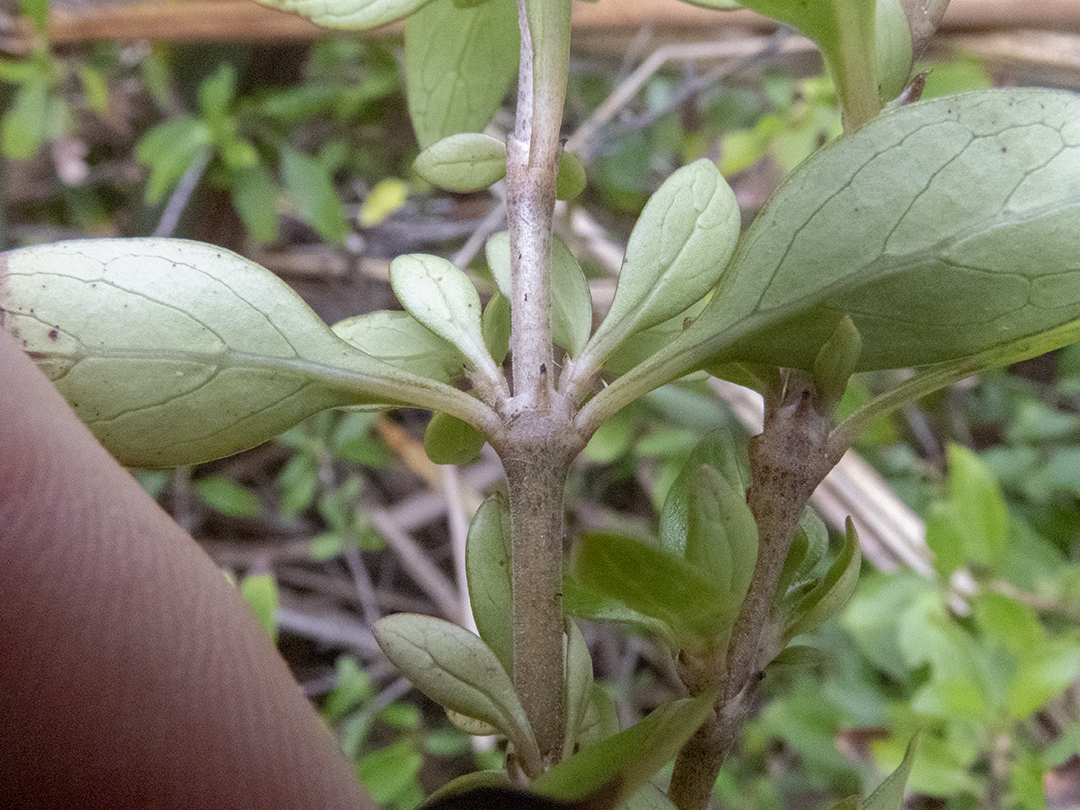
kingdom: Plantae
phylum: Tracheophyta
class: Magnoliopsida
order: Gentianales
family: Rubiaceae
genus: Coprosma
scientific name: Coprosma cunninghamii
